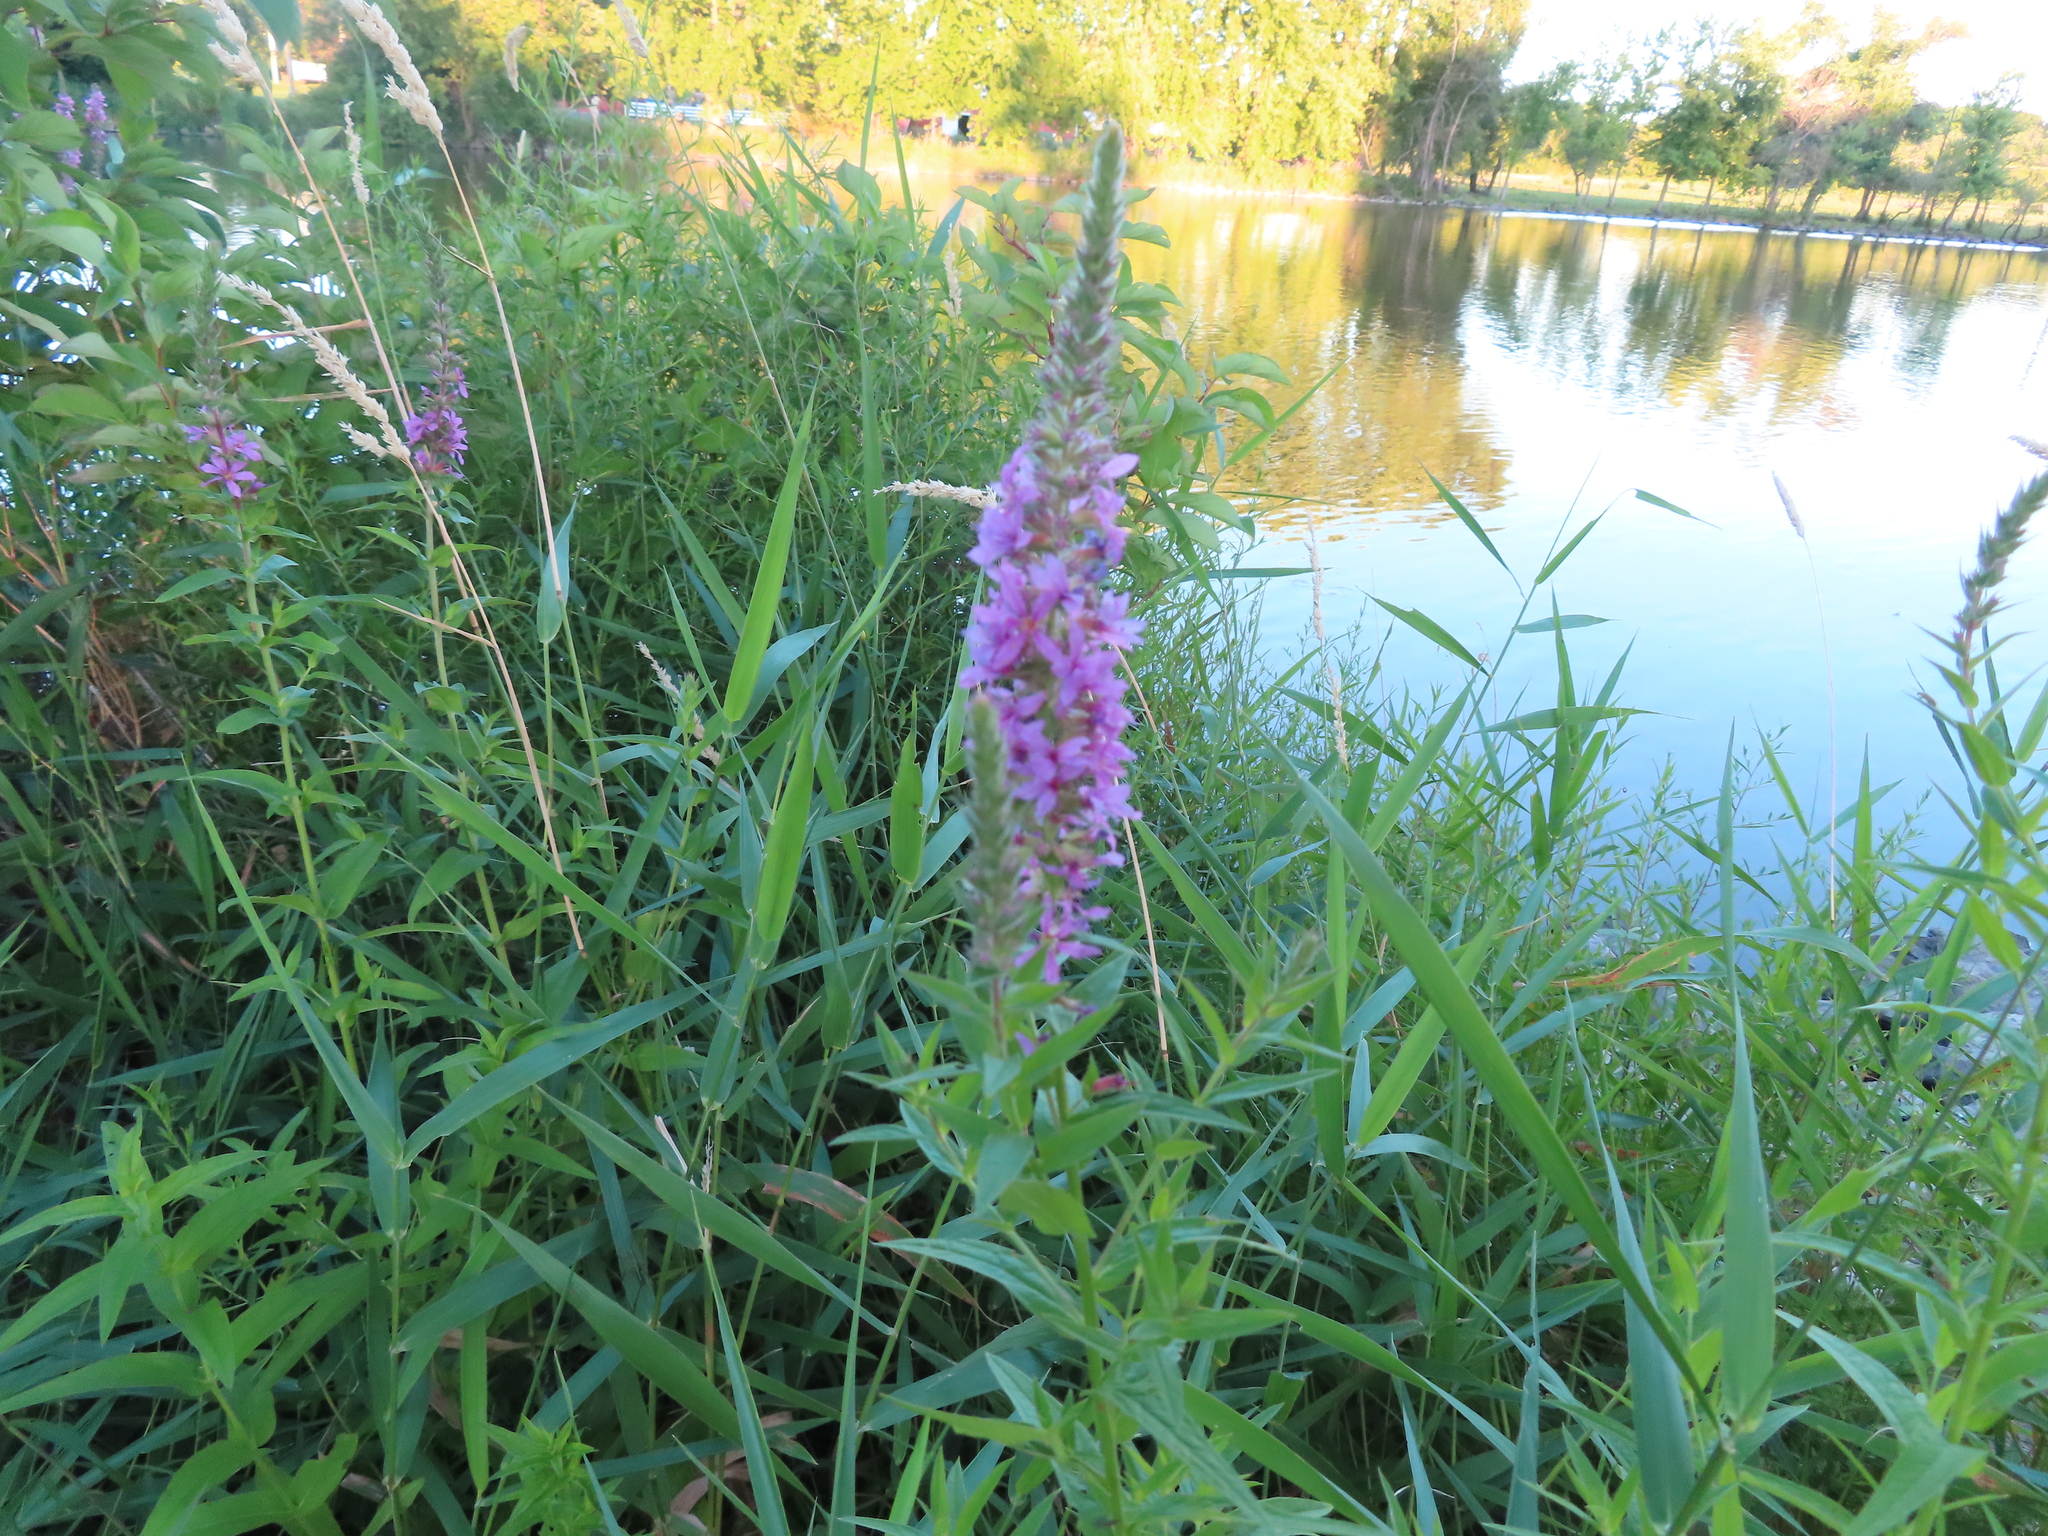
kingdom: Plantae
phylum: Tracheophyta
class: Magnoliopsida
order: Myrtales
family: Lythraceae
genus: Lythrum
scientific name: Lythrum salicaria
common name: Purple loosestrife
